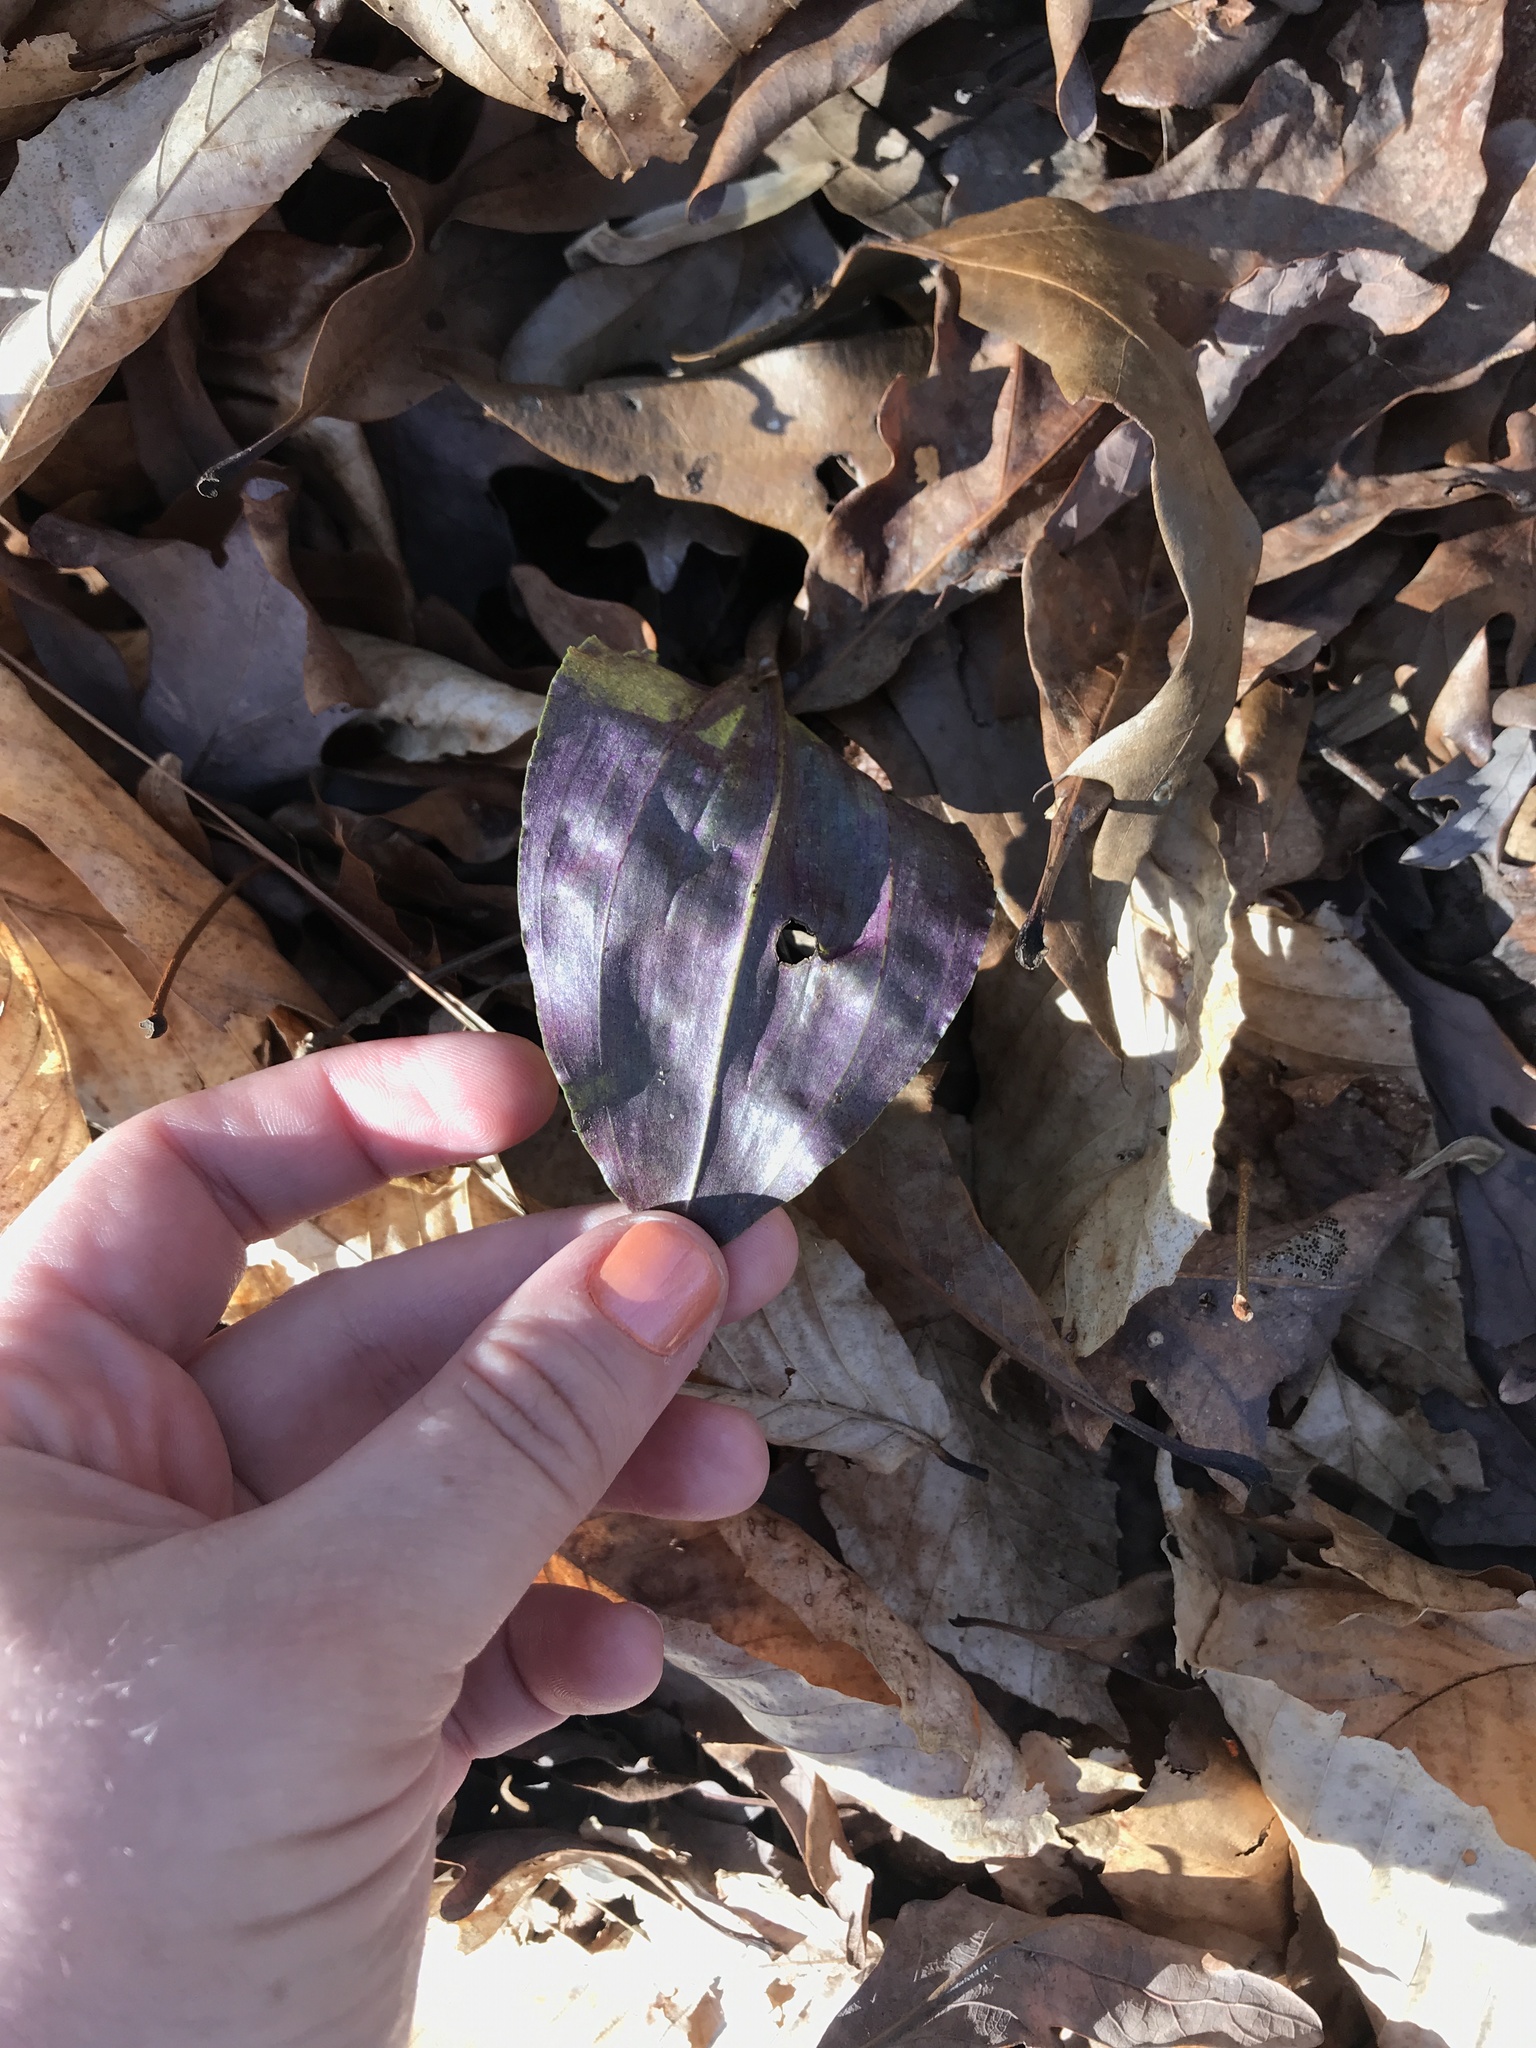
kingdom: Plantae
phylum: Tracheophyta
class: Liliopsida
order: Asparagales
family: Orchidaceae
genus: Tipularia
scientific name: Tipularia discolor
